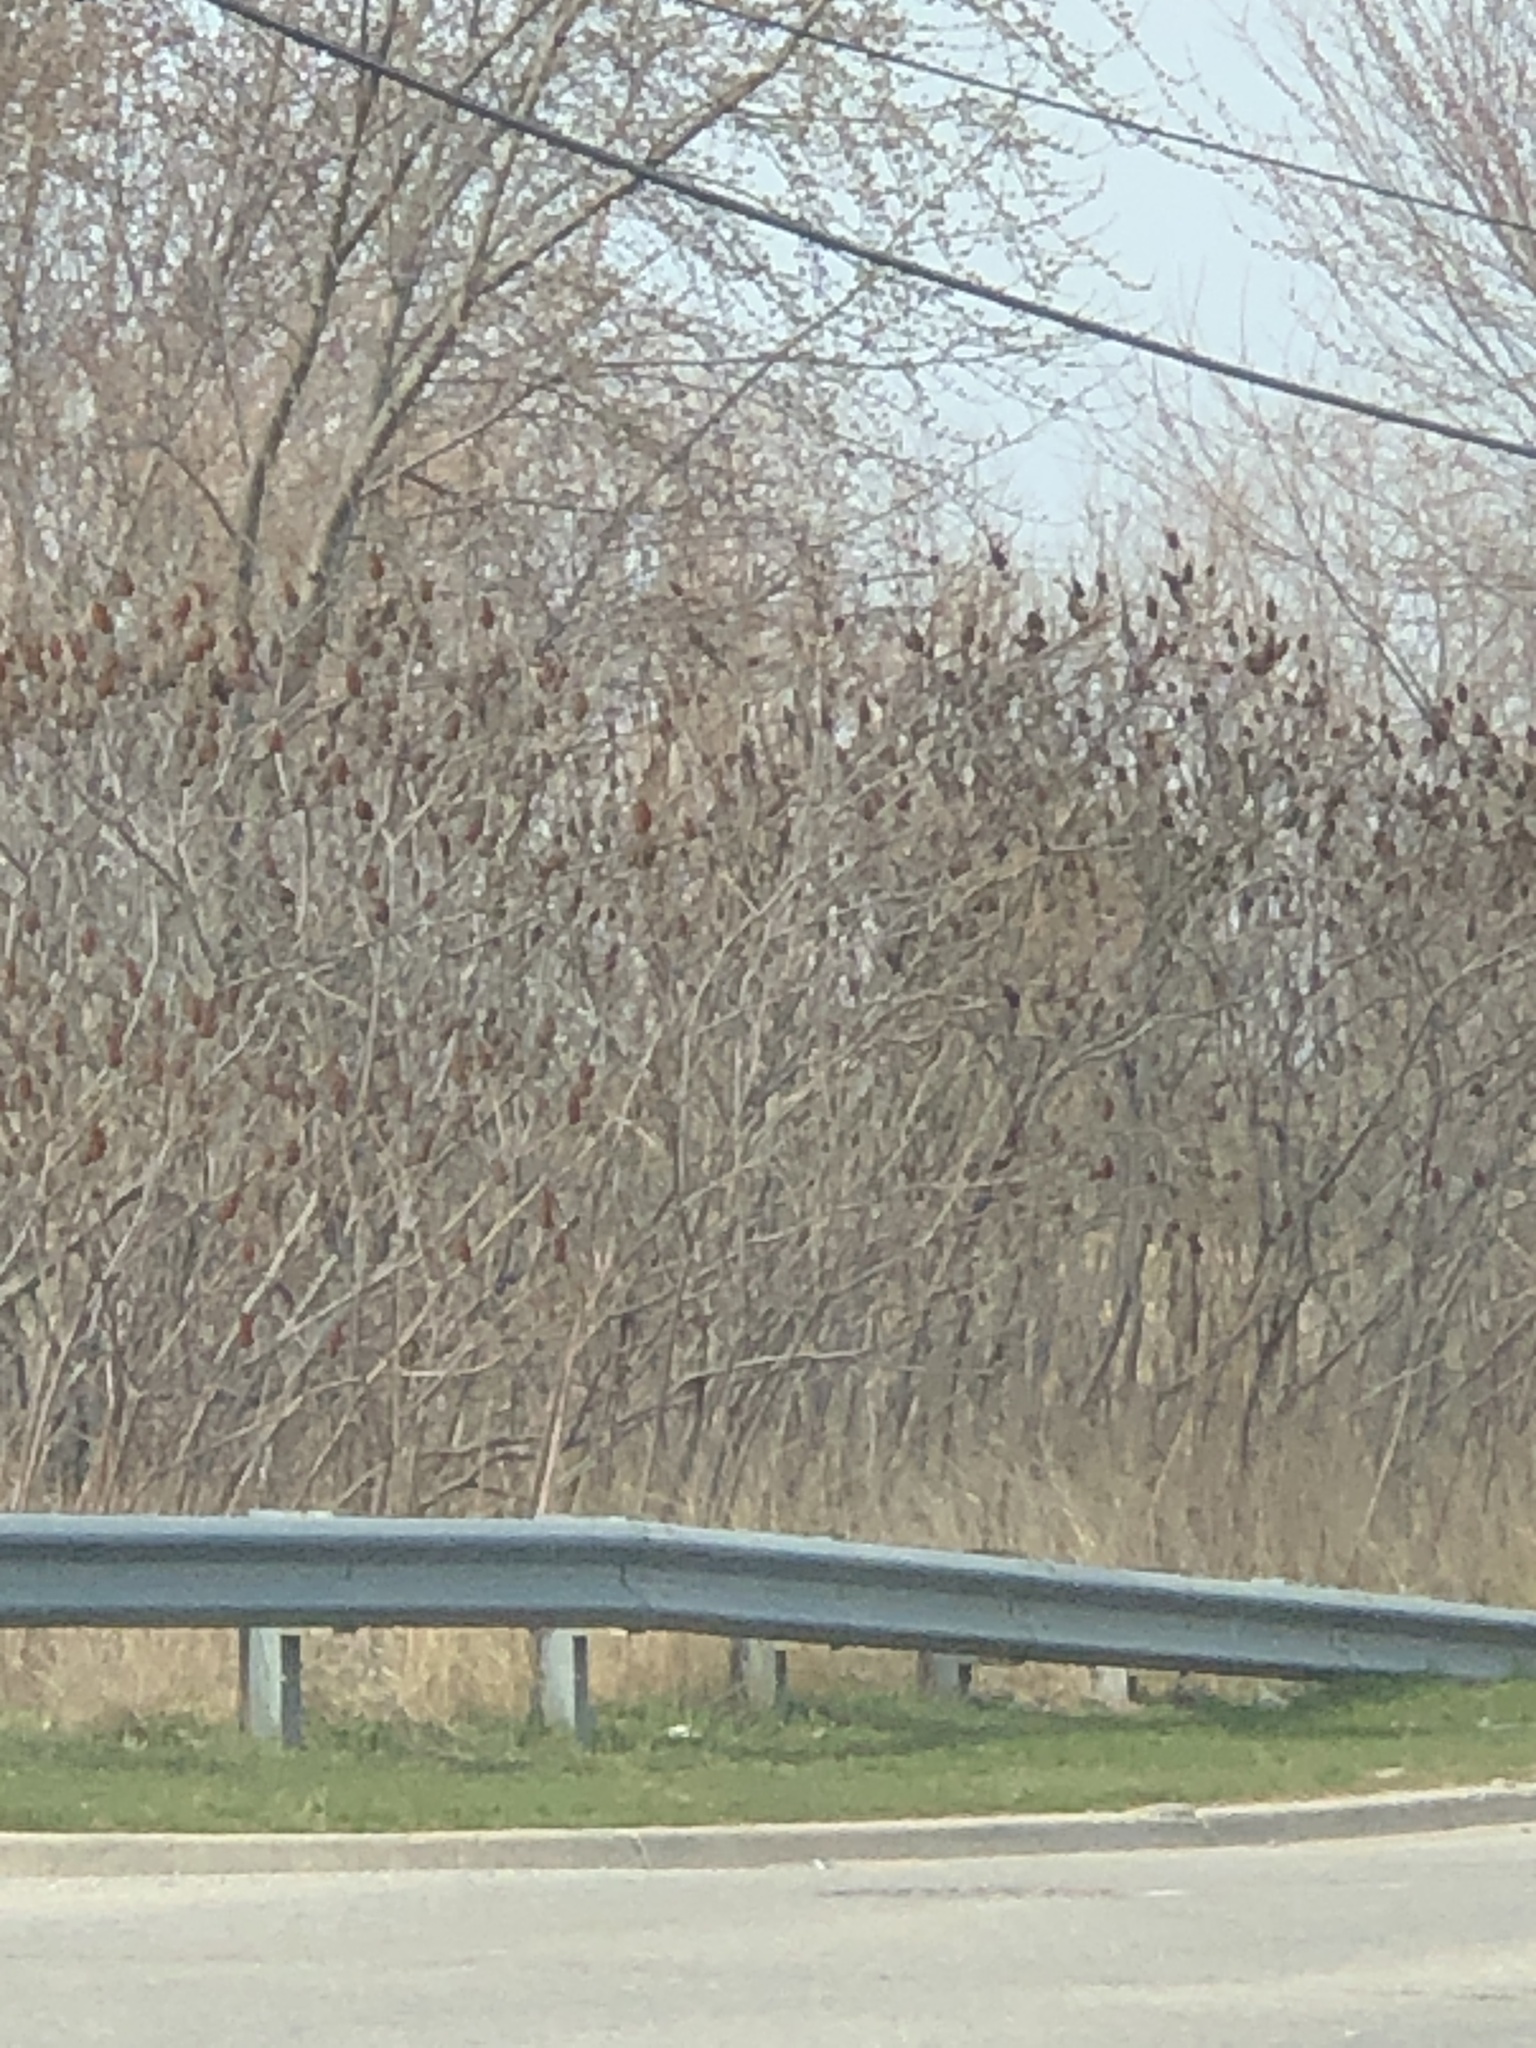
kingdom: Plantae
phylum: Tracheophyta
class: Magnoliopsida
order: Sapindales
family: Anacardiaceae
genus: Rhus
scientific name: Rhus typhina
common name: Staghorn sumac
